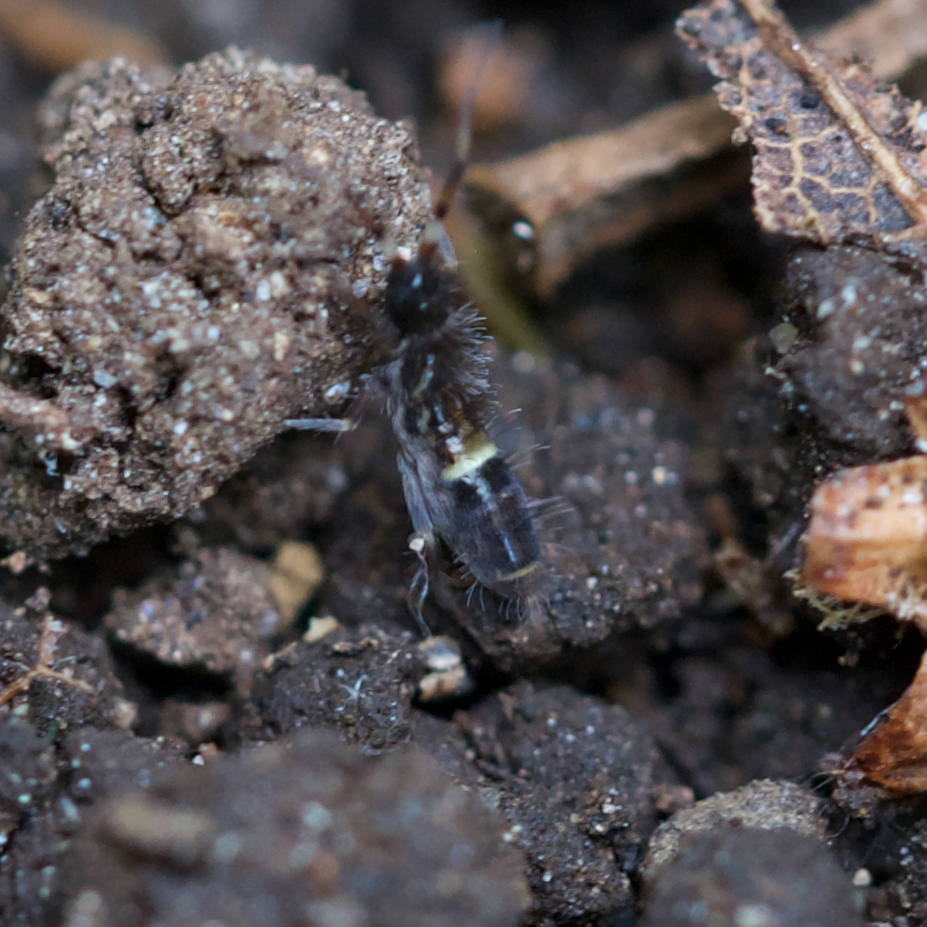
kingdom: Animalia
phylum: Arthropoda
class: Collembola
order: Entomobryomorpha
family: Orchesellidae
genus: Orchesella
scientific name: Orchesella cincta
